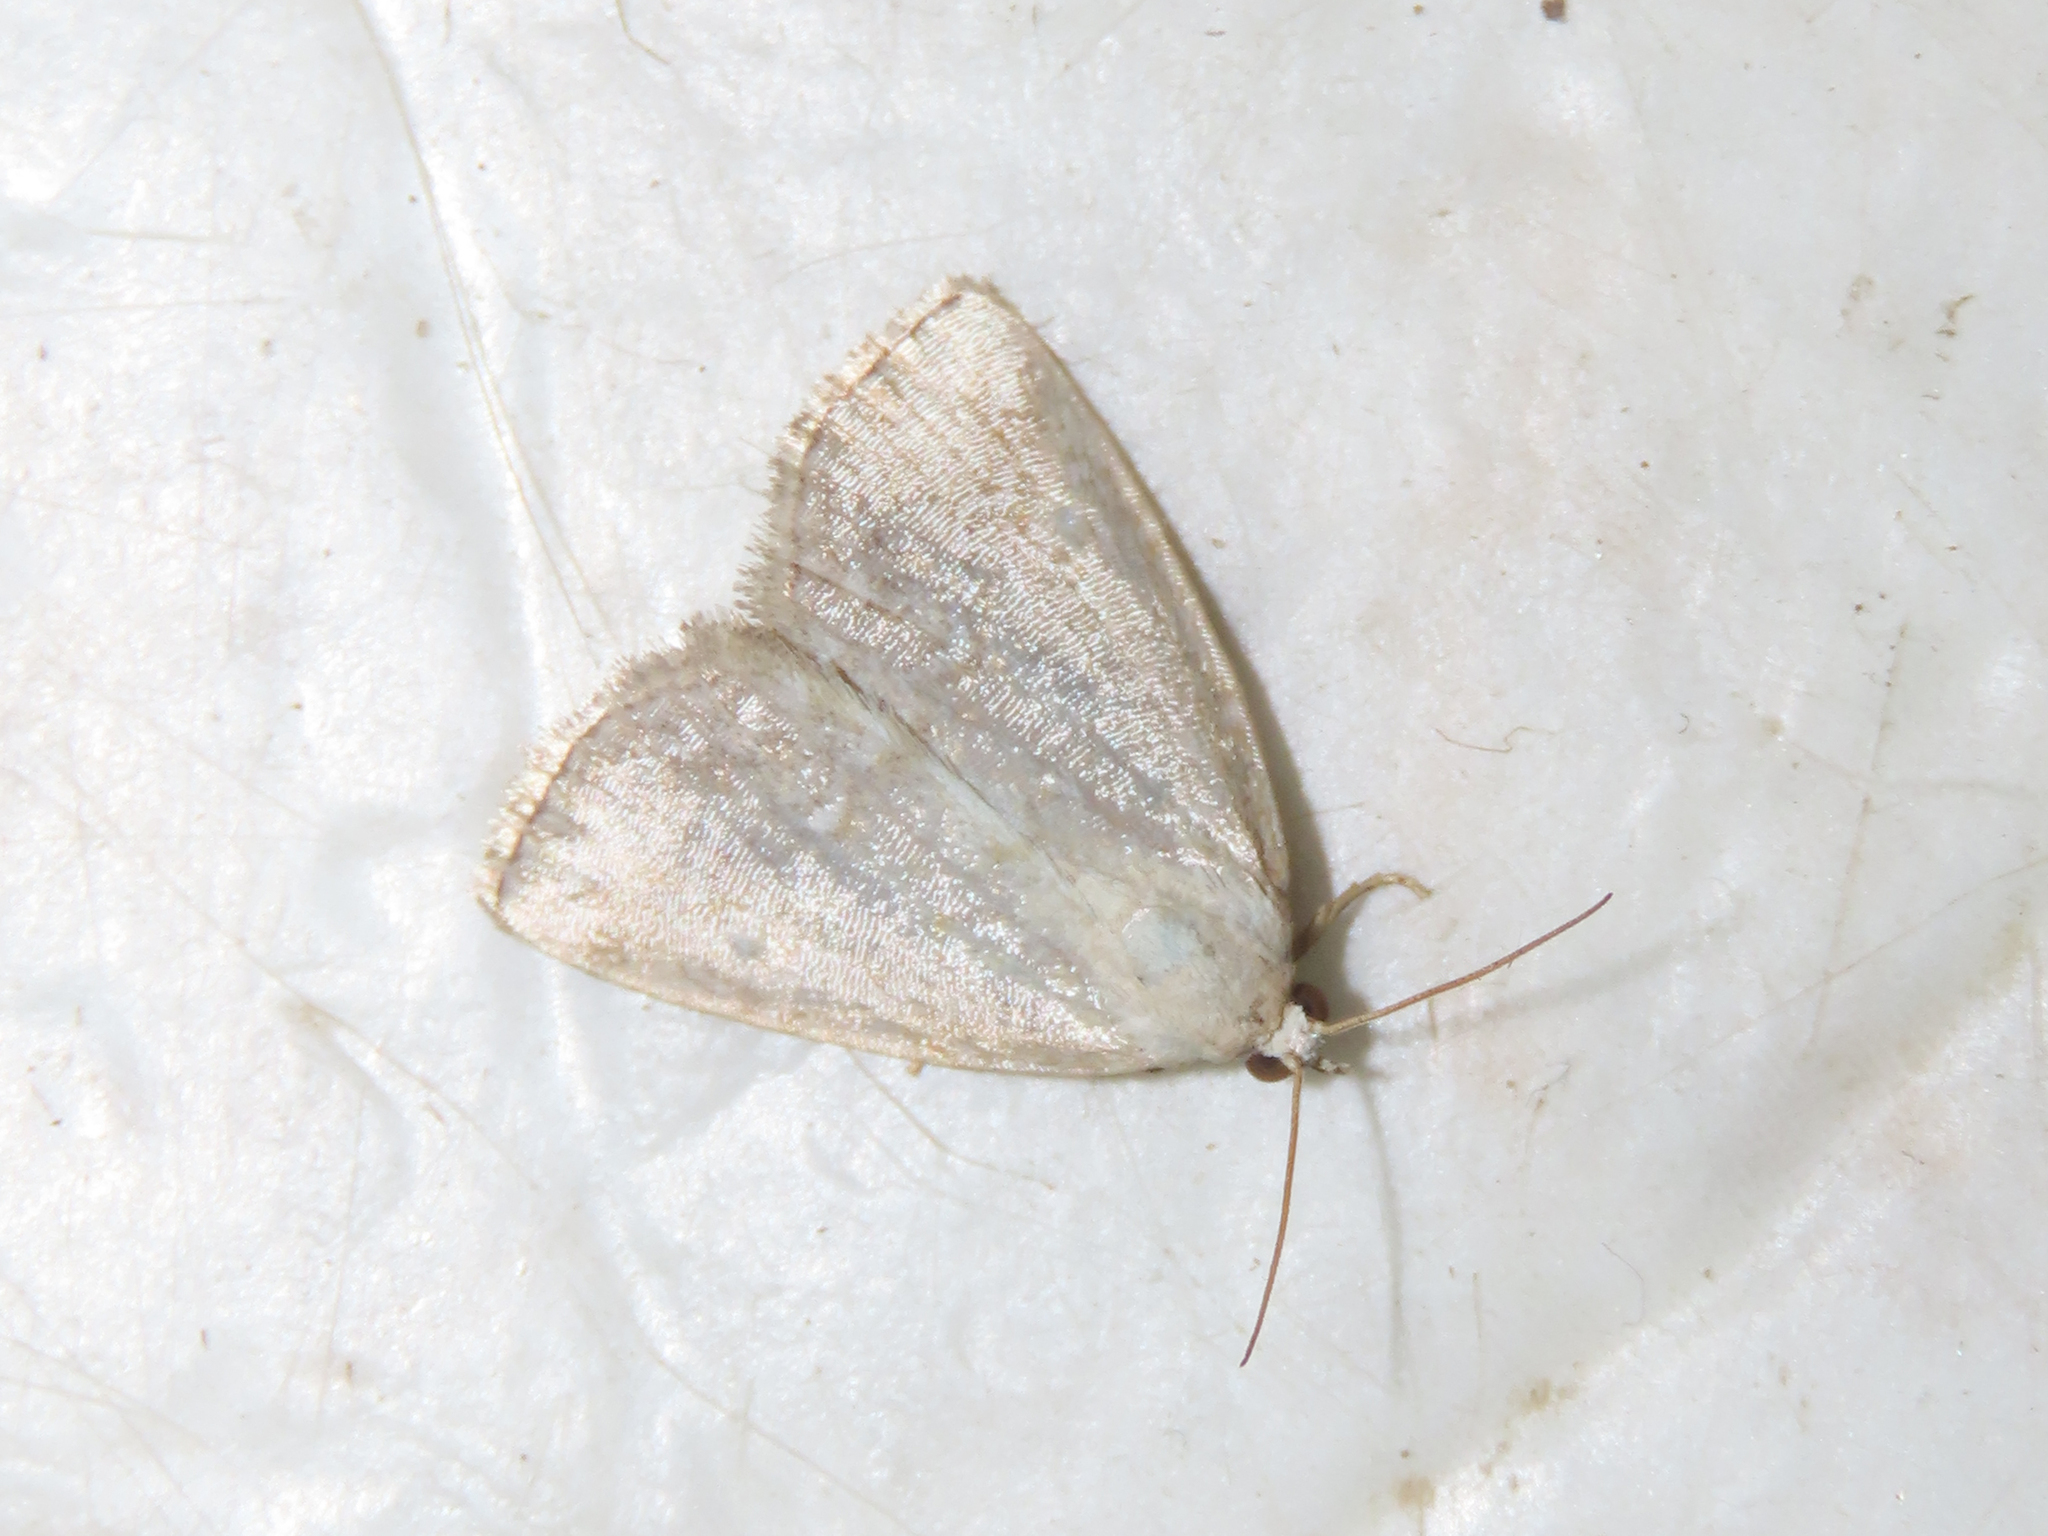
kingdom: Animalia
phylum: Arthropoda
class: Insecta
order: Lepidoptera
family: Noctuidae
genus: Protodeltote
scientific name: Protodeltote albidula
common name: Pale glyph
